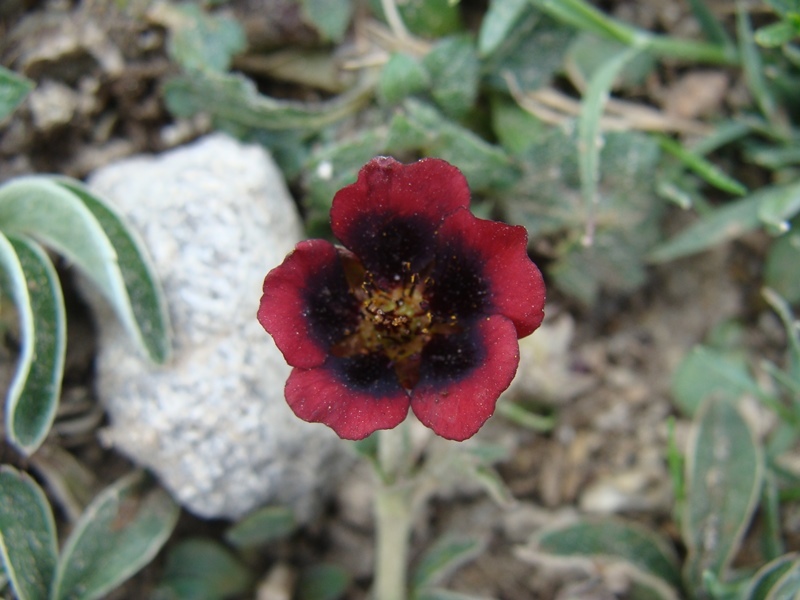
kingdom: Plantae
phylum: Tracheophyta
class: Magnoliopsida
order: Rosales
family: Rosaceae
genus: Potentilla
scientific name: Potentilla haematochrus
